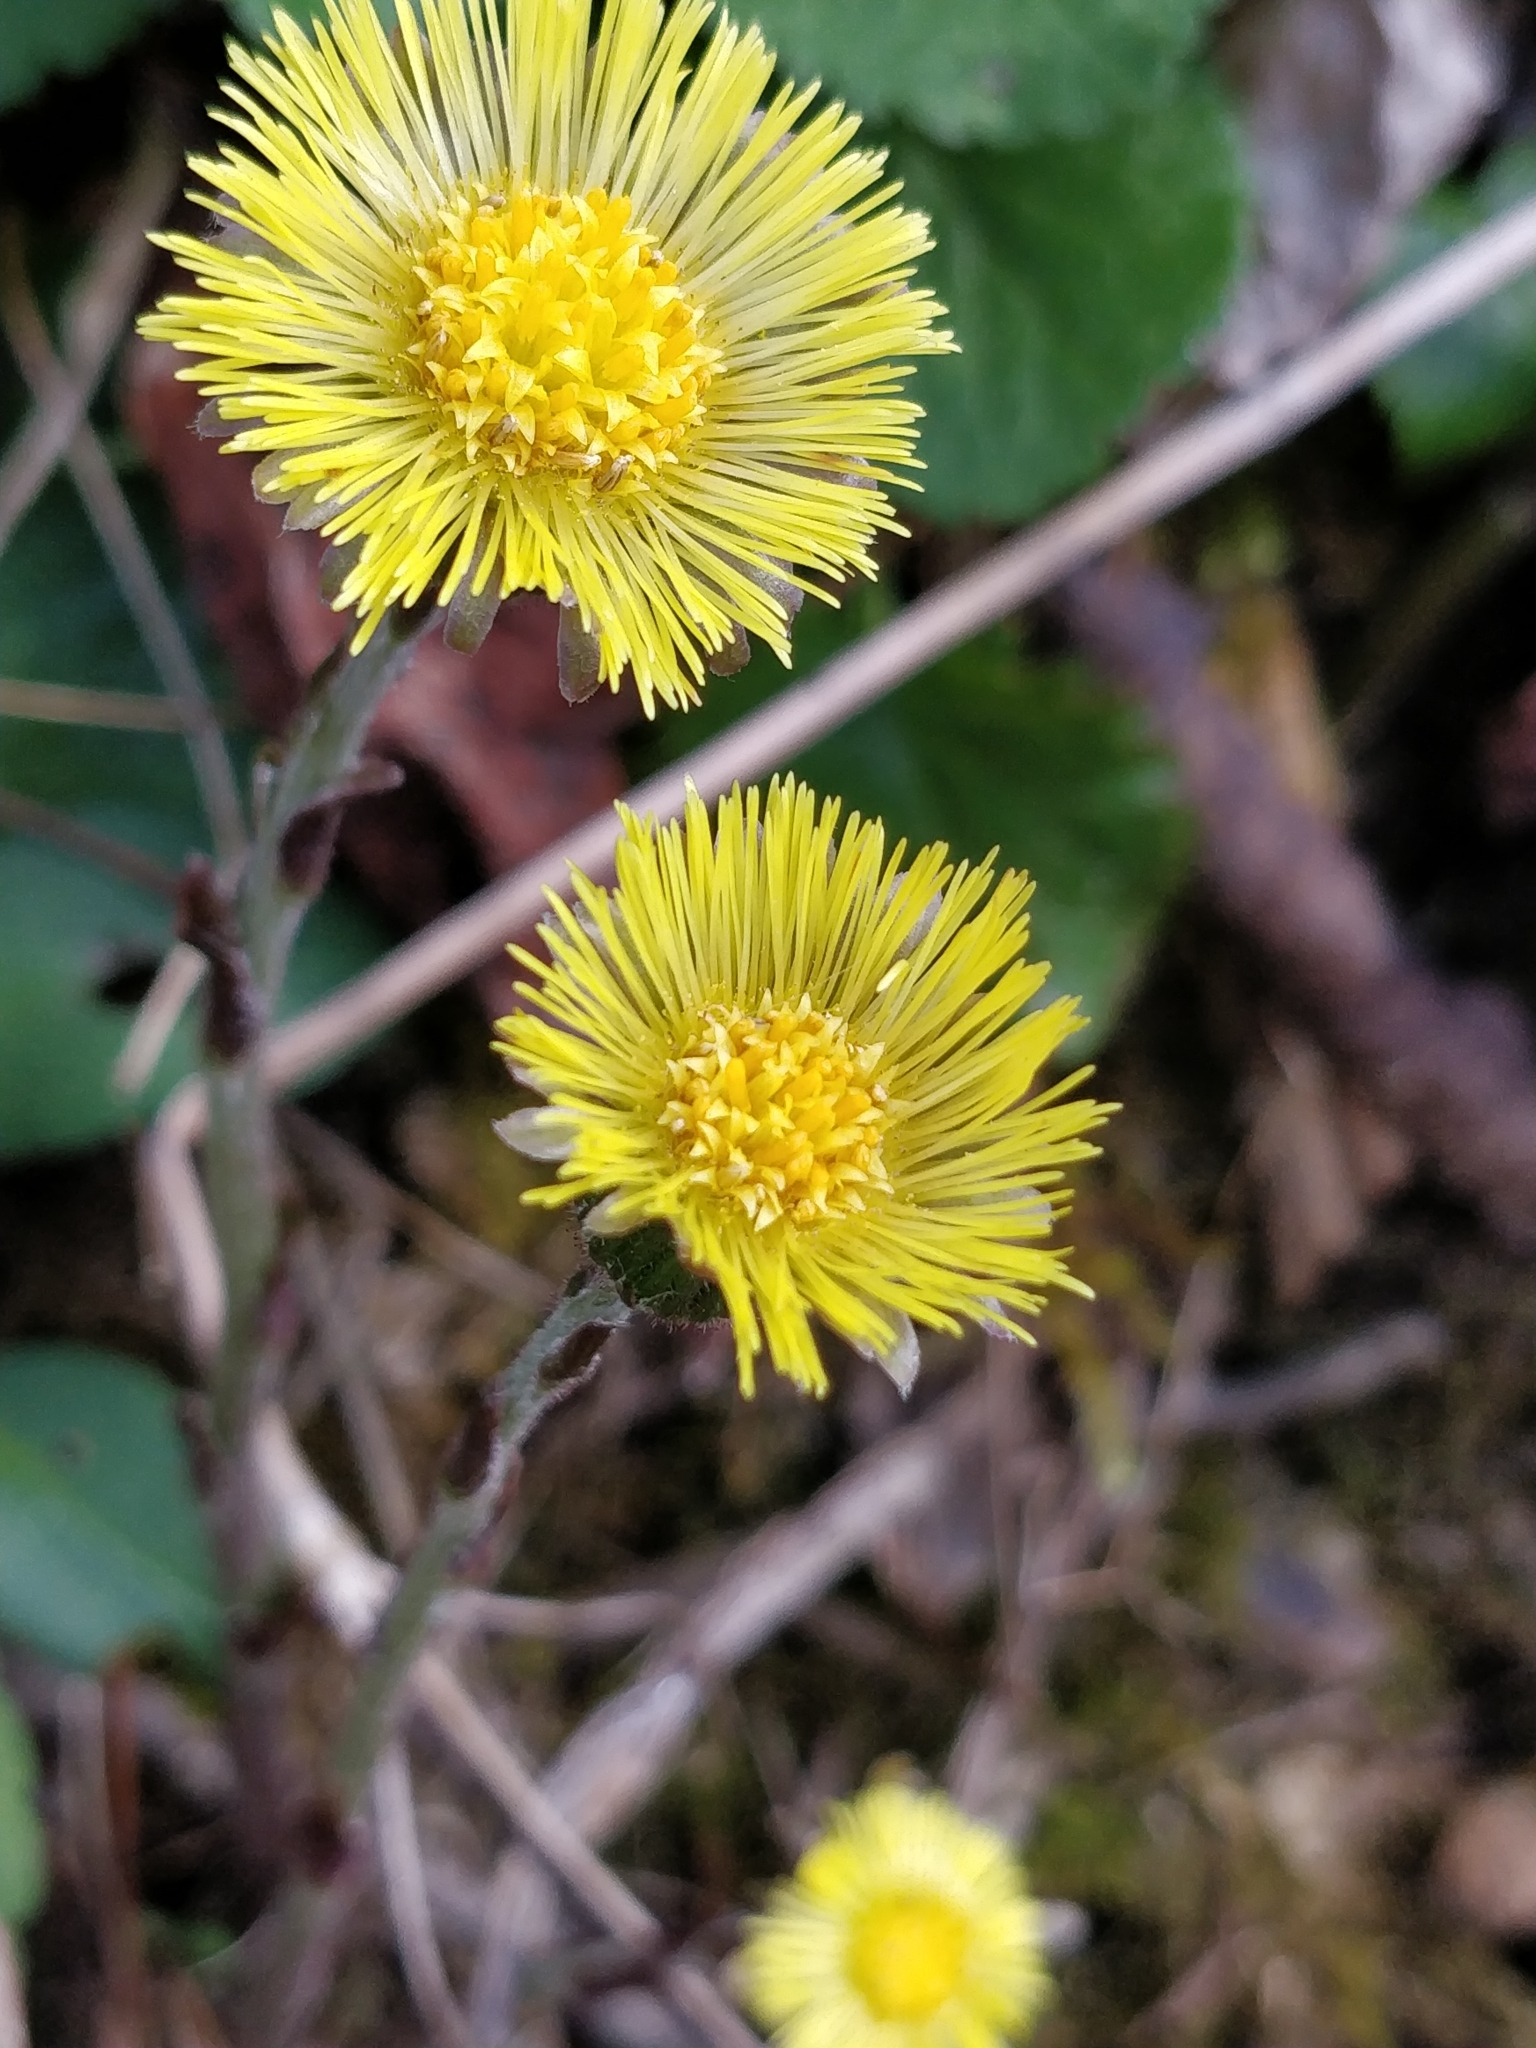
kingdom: Plantae
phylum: Tracheophyta
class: Magnoliopsida
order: Asterales
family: Asteraceae
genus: Tussilago
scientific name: Tussilago farfara
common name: Coltsfoot
